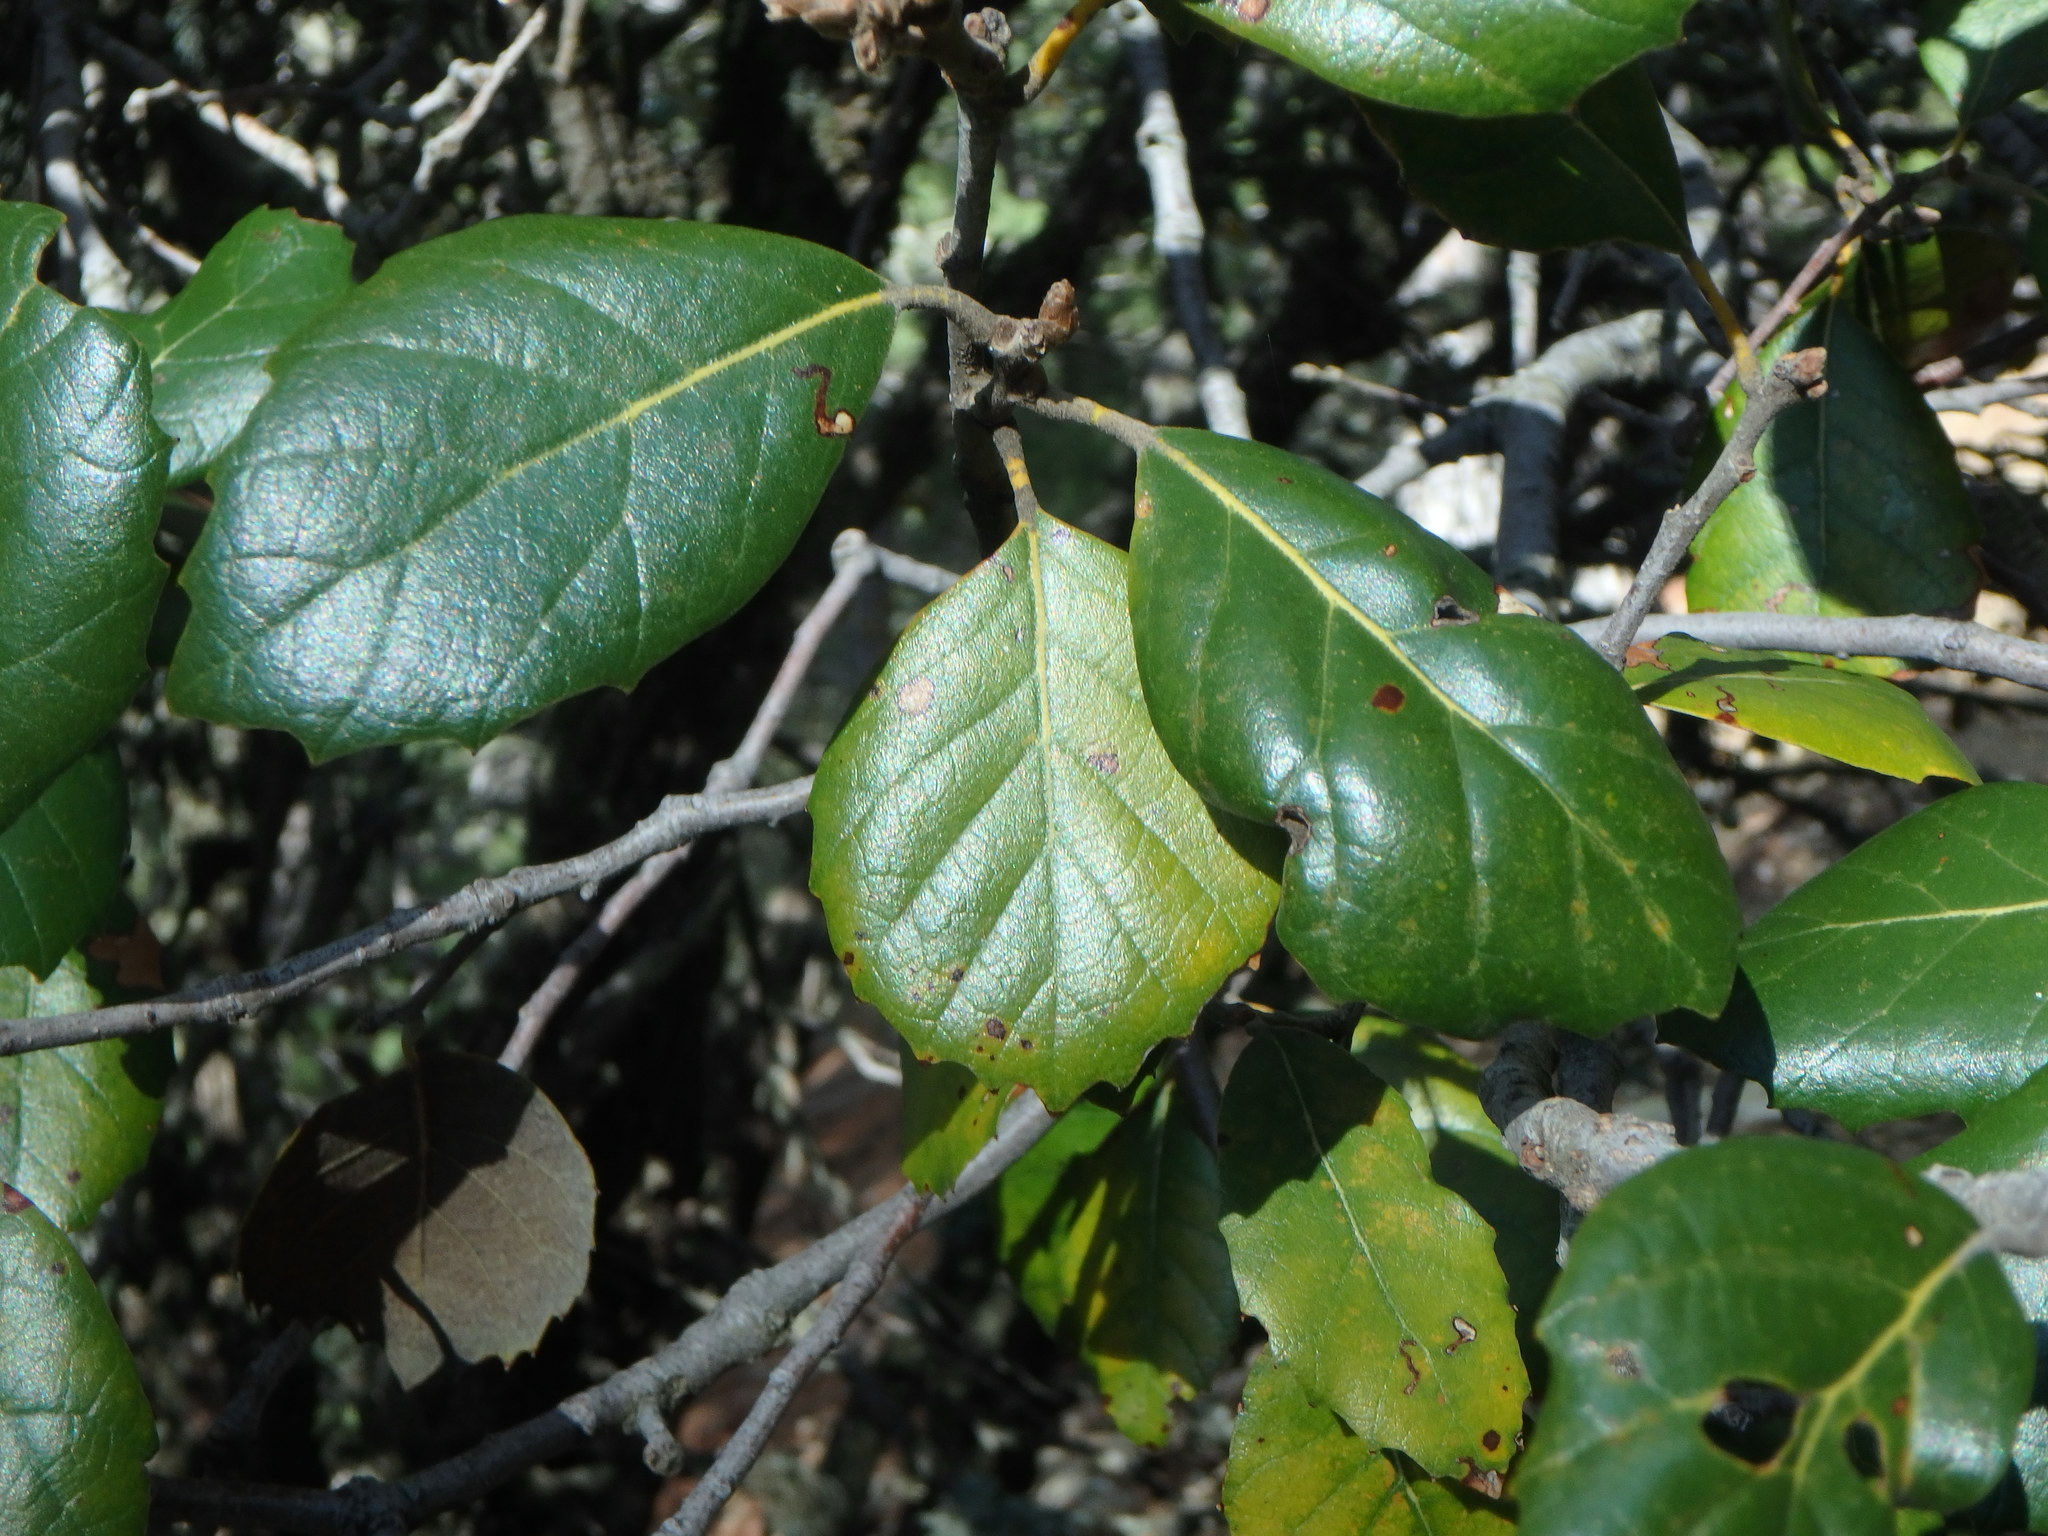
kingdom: Plantae
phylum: Tracheophyta
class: Magnoliopsida
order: Fagales
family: Fagaceae
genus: Quercus
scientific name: Quercus alnifolia
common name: Golden oak
